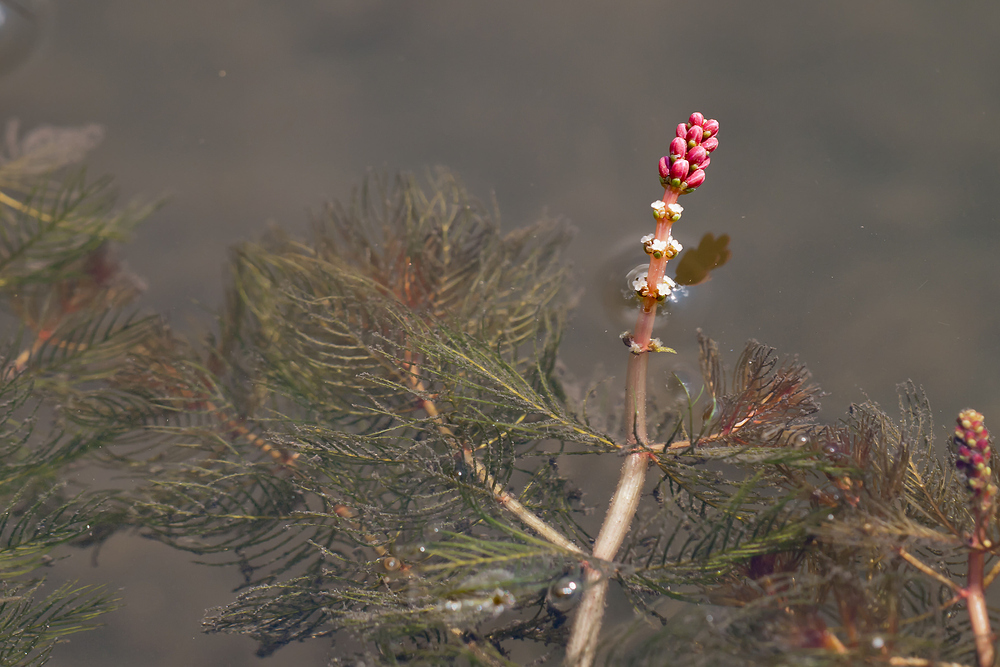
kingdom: Plantae
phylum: Tracheophyta
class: Magnoliopsida
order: Saxifragales
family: Haloragaceae
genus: Myriophyllum
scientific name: Myriophyllum spicatum
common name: Spiked water-milfoil
